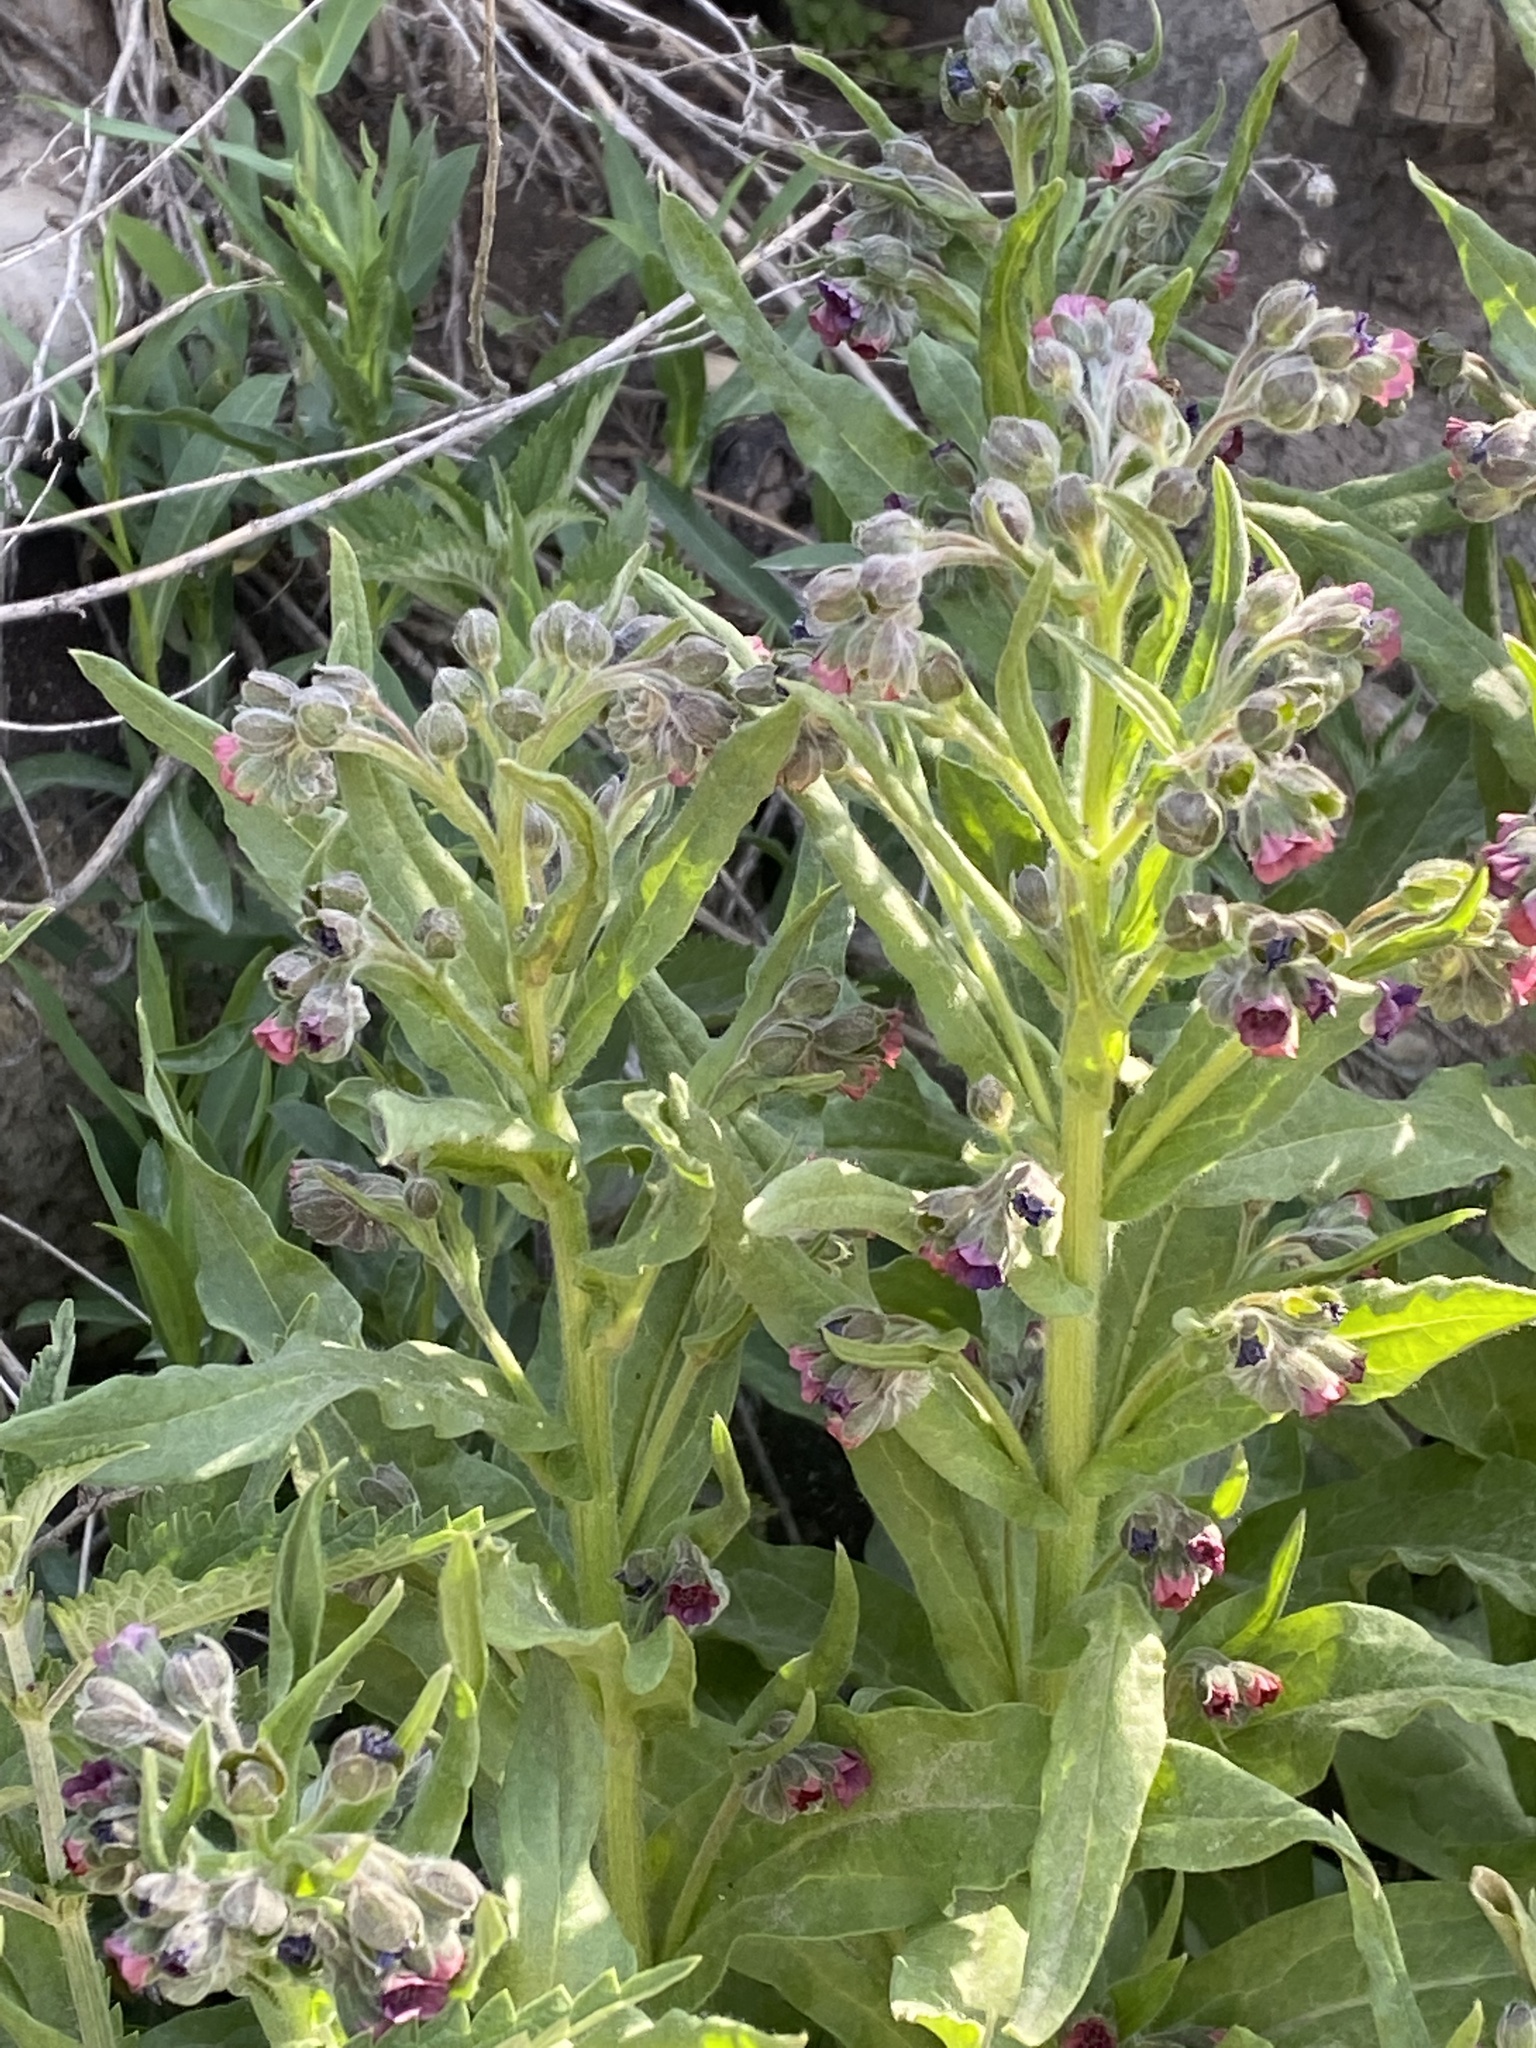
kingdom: Plantae
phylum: Tracheophyta
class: Magnoliopsida
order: Boraginales
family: Boraginaceae
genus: Cynoglossum
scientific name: Cynoglossum officinale
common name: Hound's-tongue
